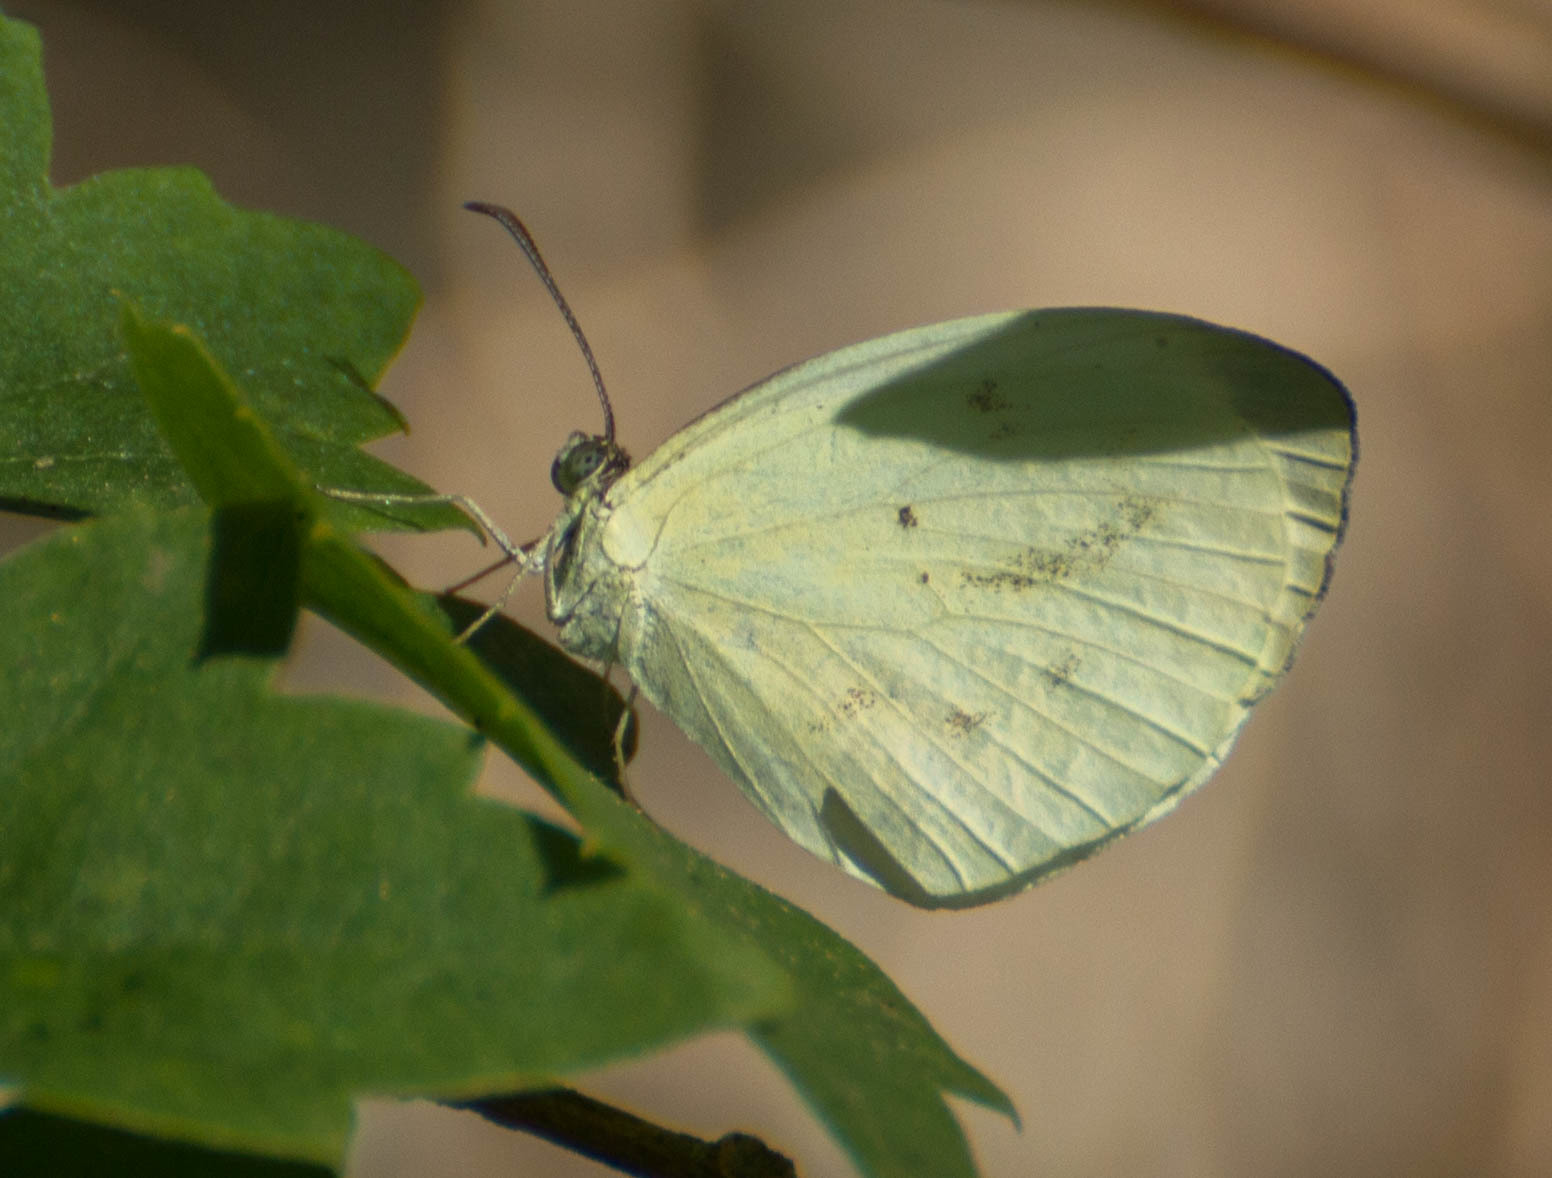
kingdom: Animalia
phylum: Arthropoda
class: Insecta
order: Lepidoptera
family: Pieridae
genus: Abaeis
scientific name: Abaeis albula
